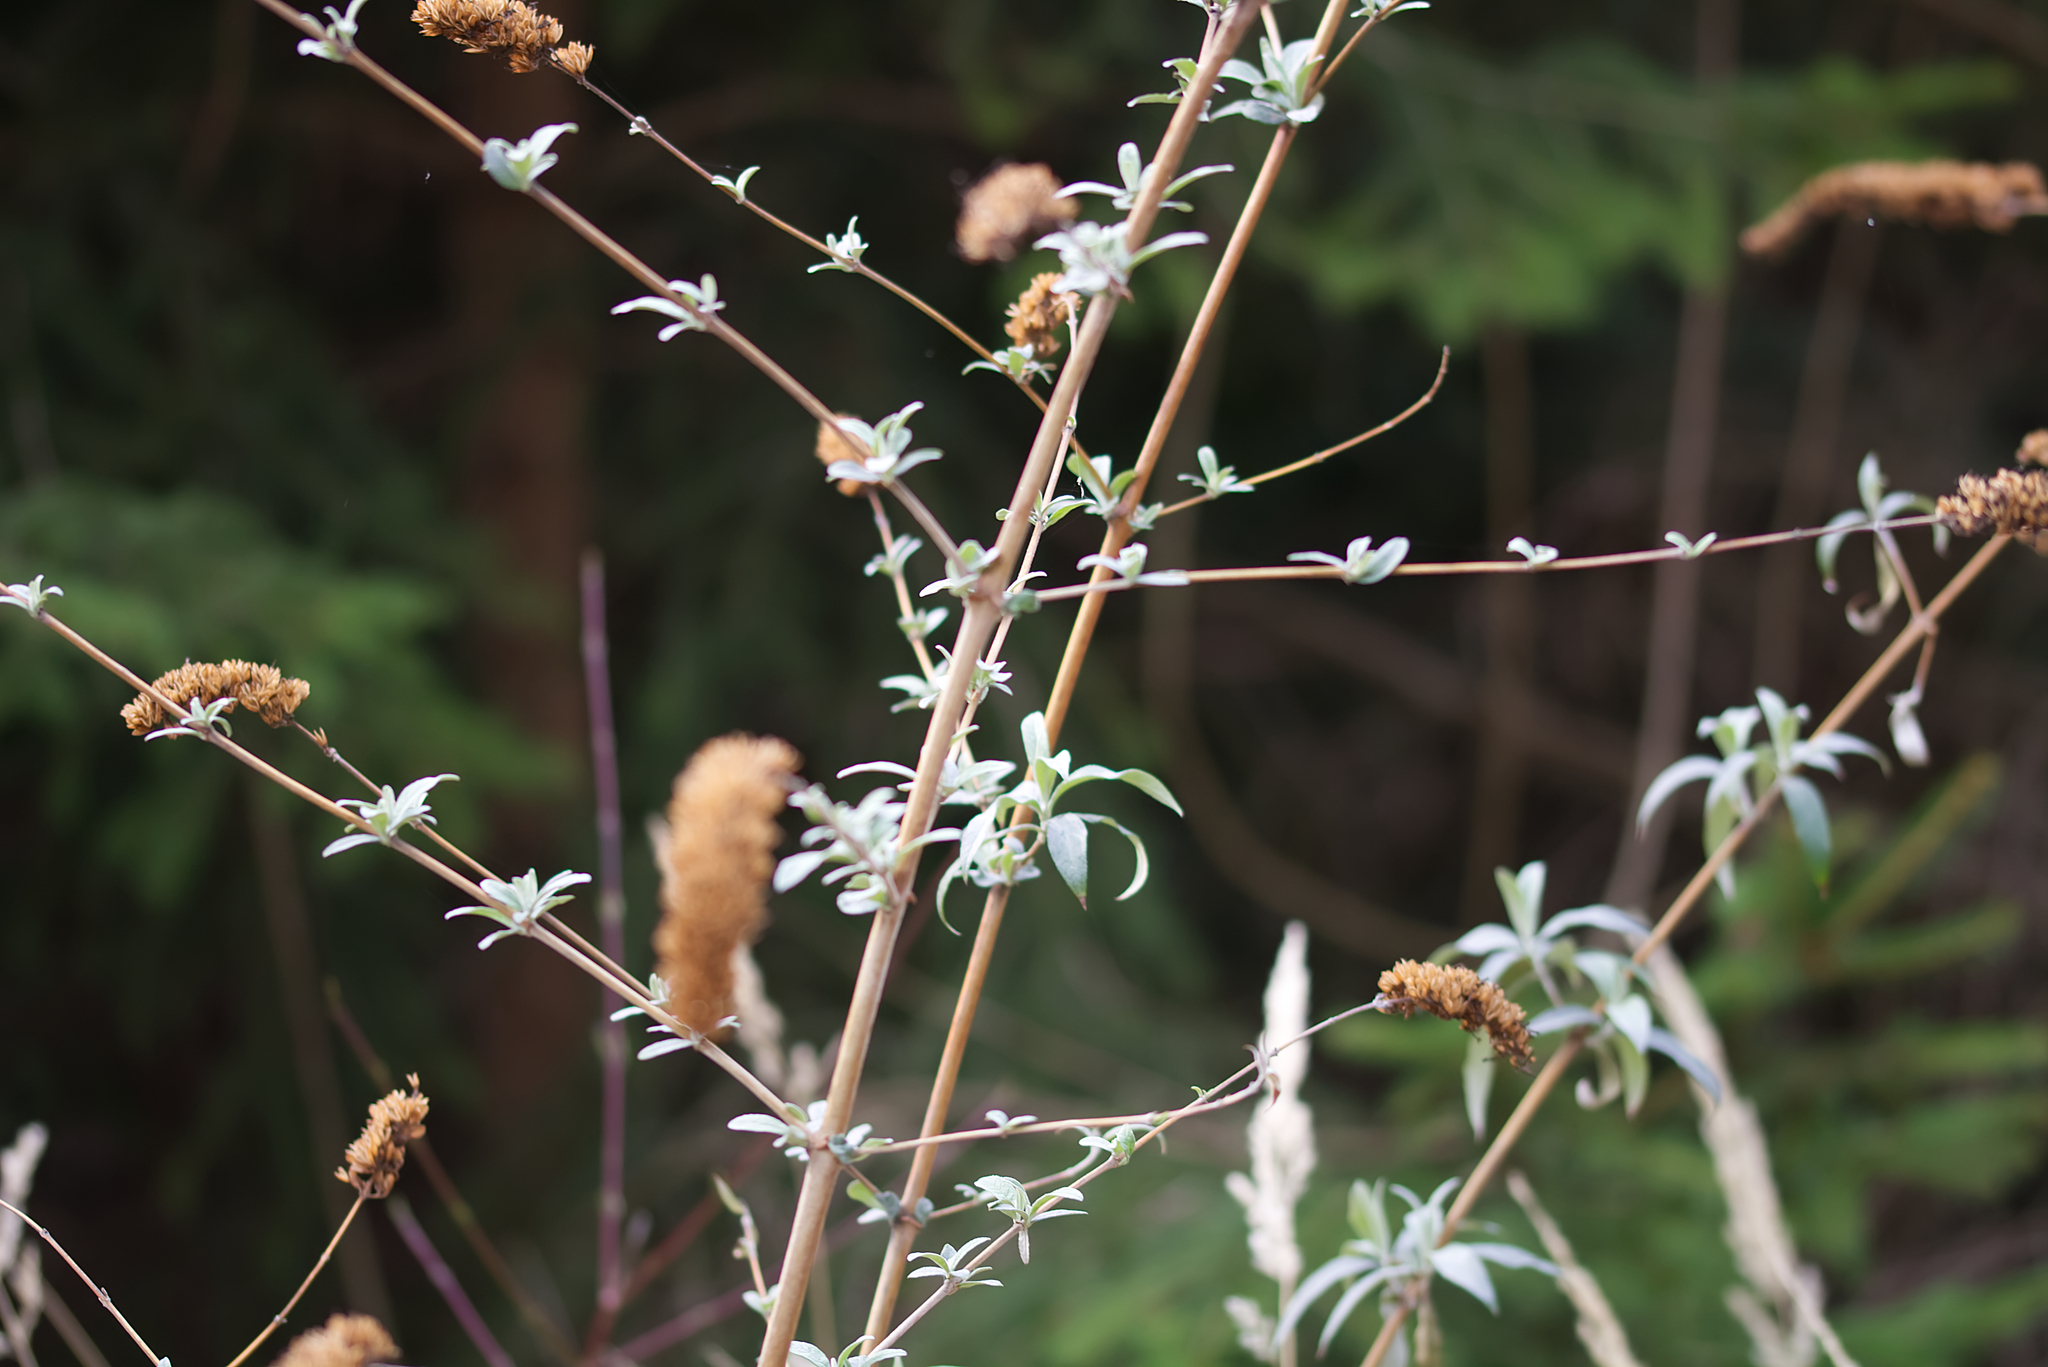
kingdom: Plantae
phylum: Tracheophyta
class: Magnoliopsida
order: Lamiales
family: Scrophulariaceae
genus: Buddleja
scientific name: Buddleja davidii
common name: Butterfly-bush
